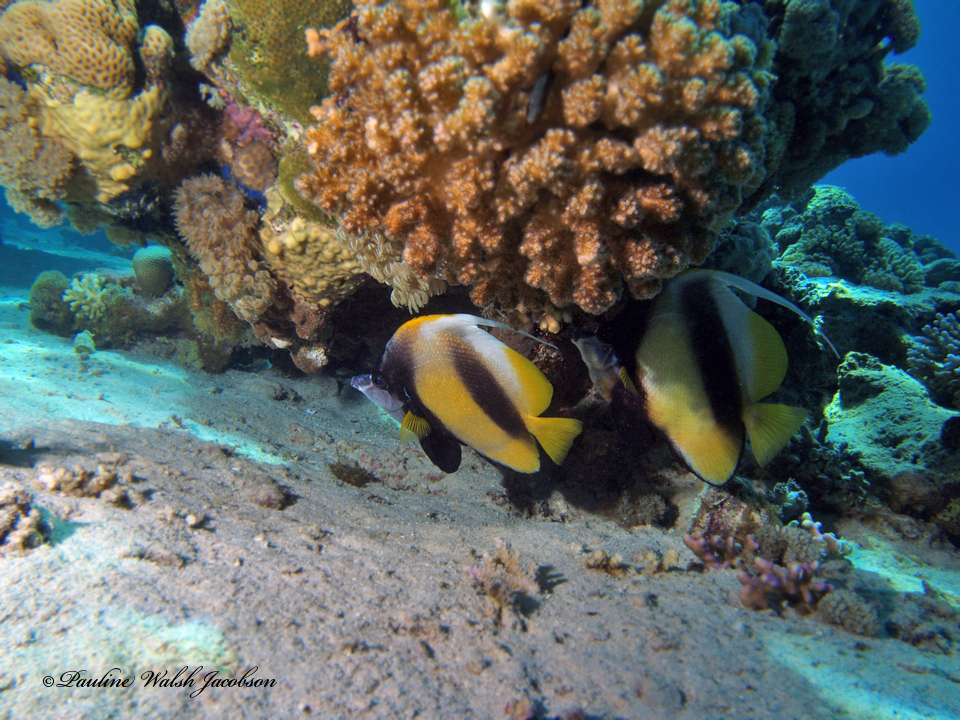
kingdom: Animalia
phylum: Chordata
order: Perciformes
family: Chaetodontidae
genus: Heniochus
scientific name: Heniochus intermedius
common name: Red sea bannerfish
